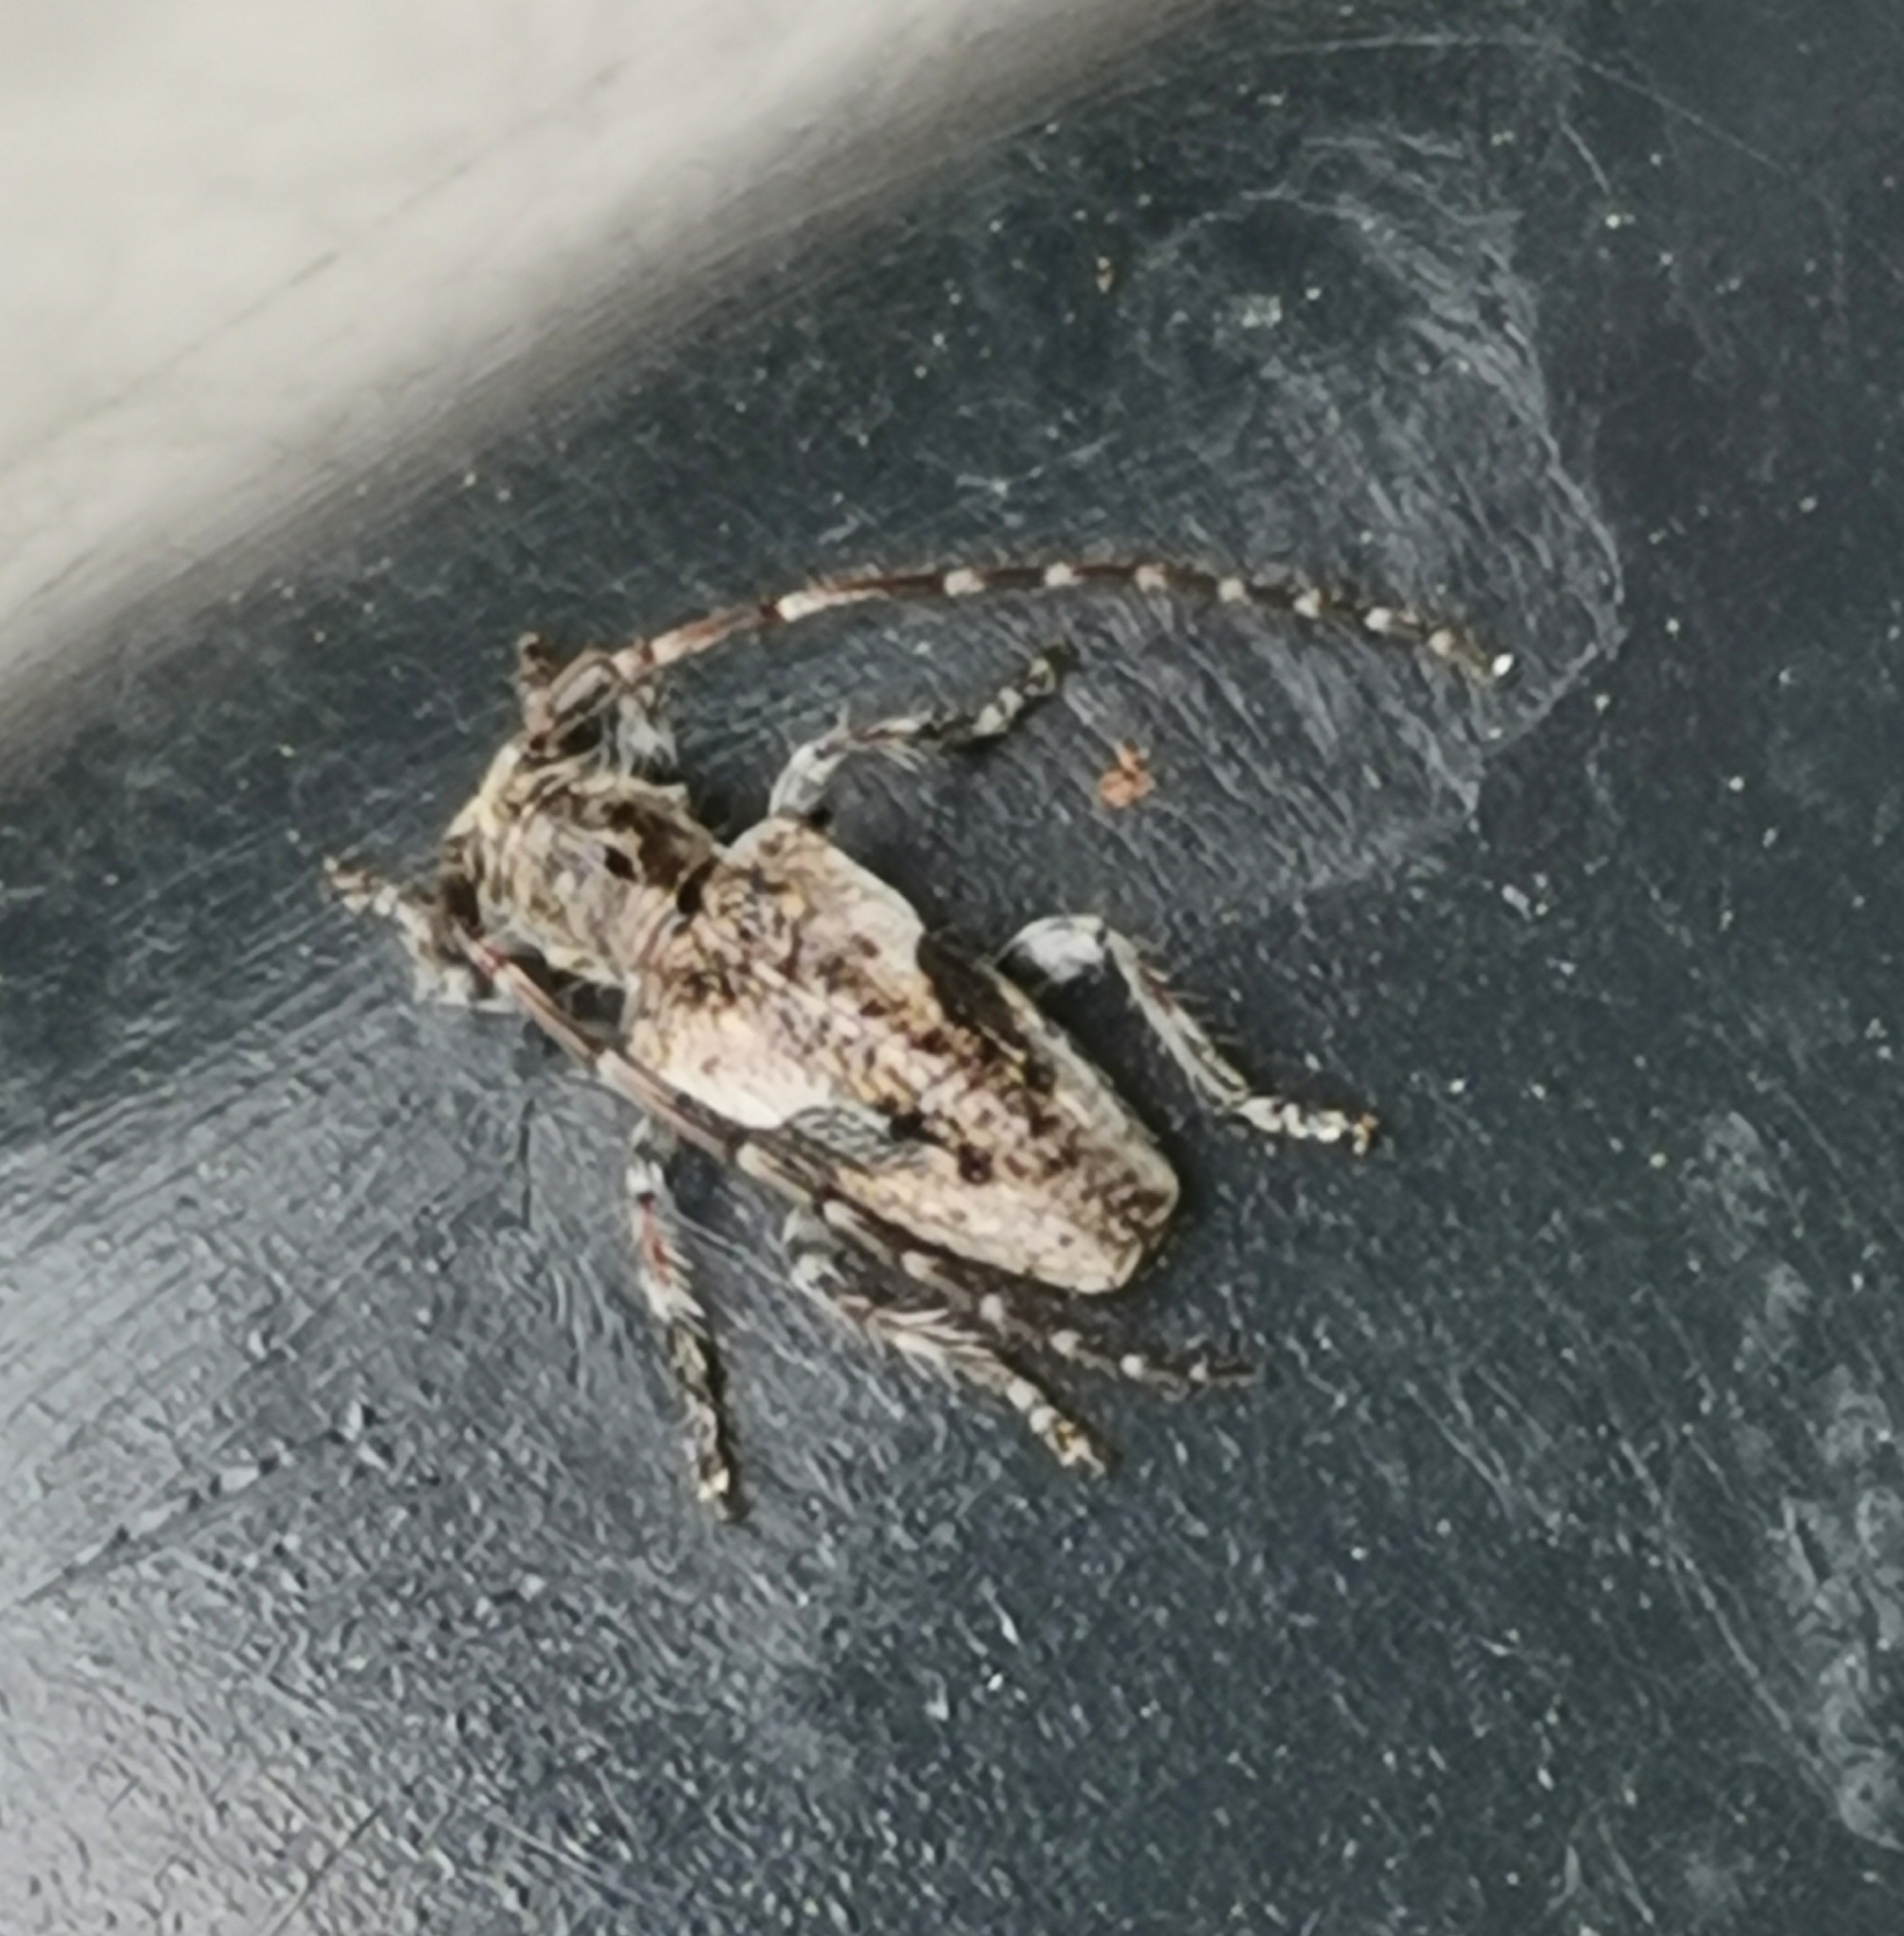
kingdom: Animalia
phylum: Arthropoda
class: Insecta
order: Coleoptera
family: Cerambycidae
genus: Pogonocherus
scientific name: Pogonocherus decoratus
